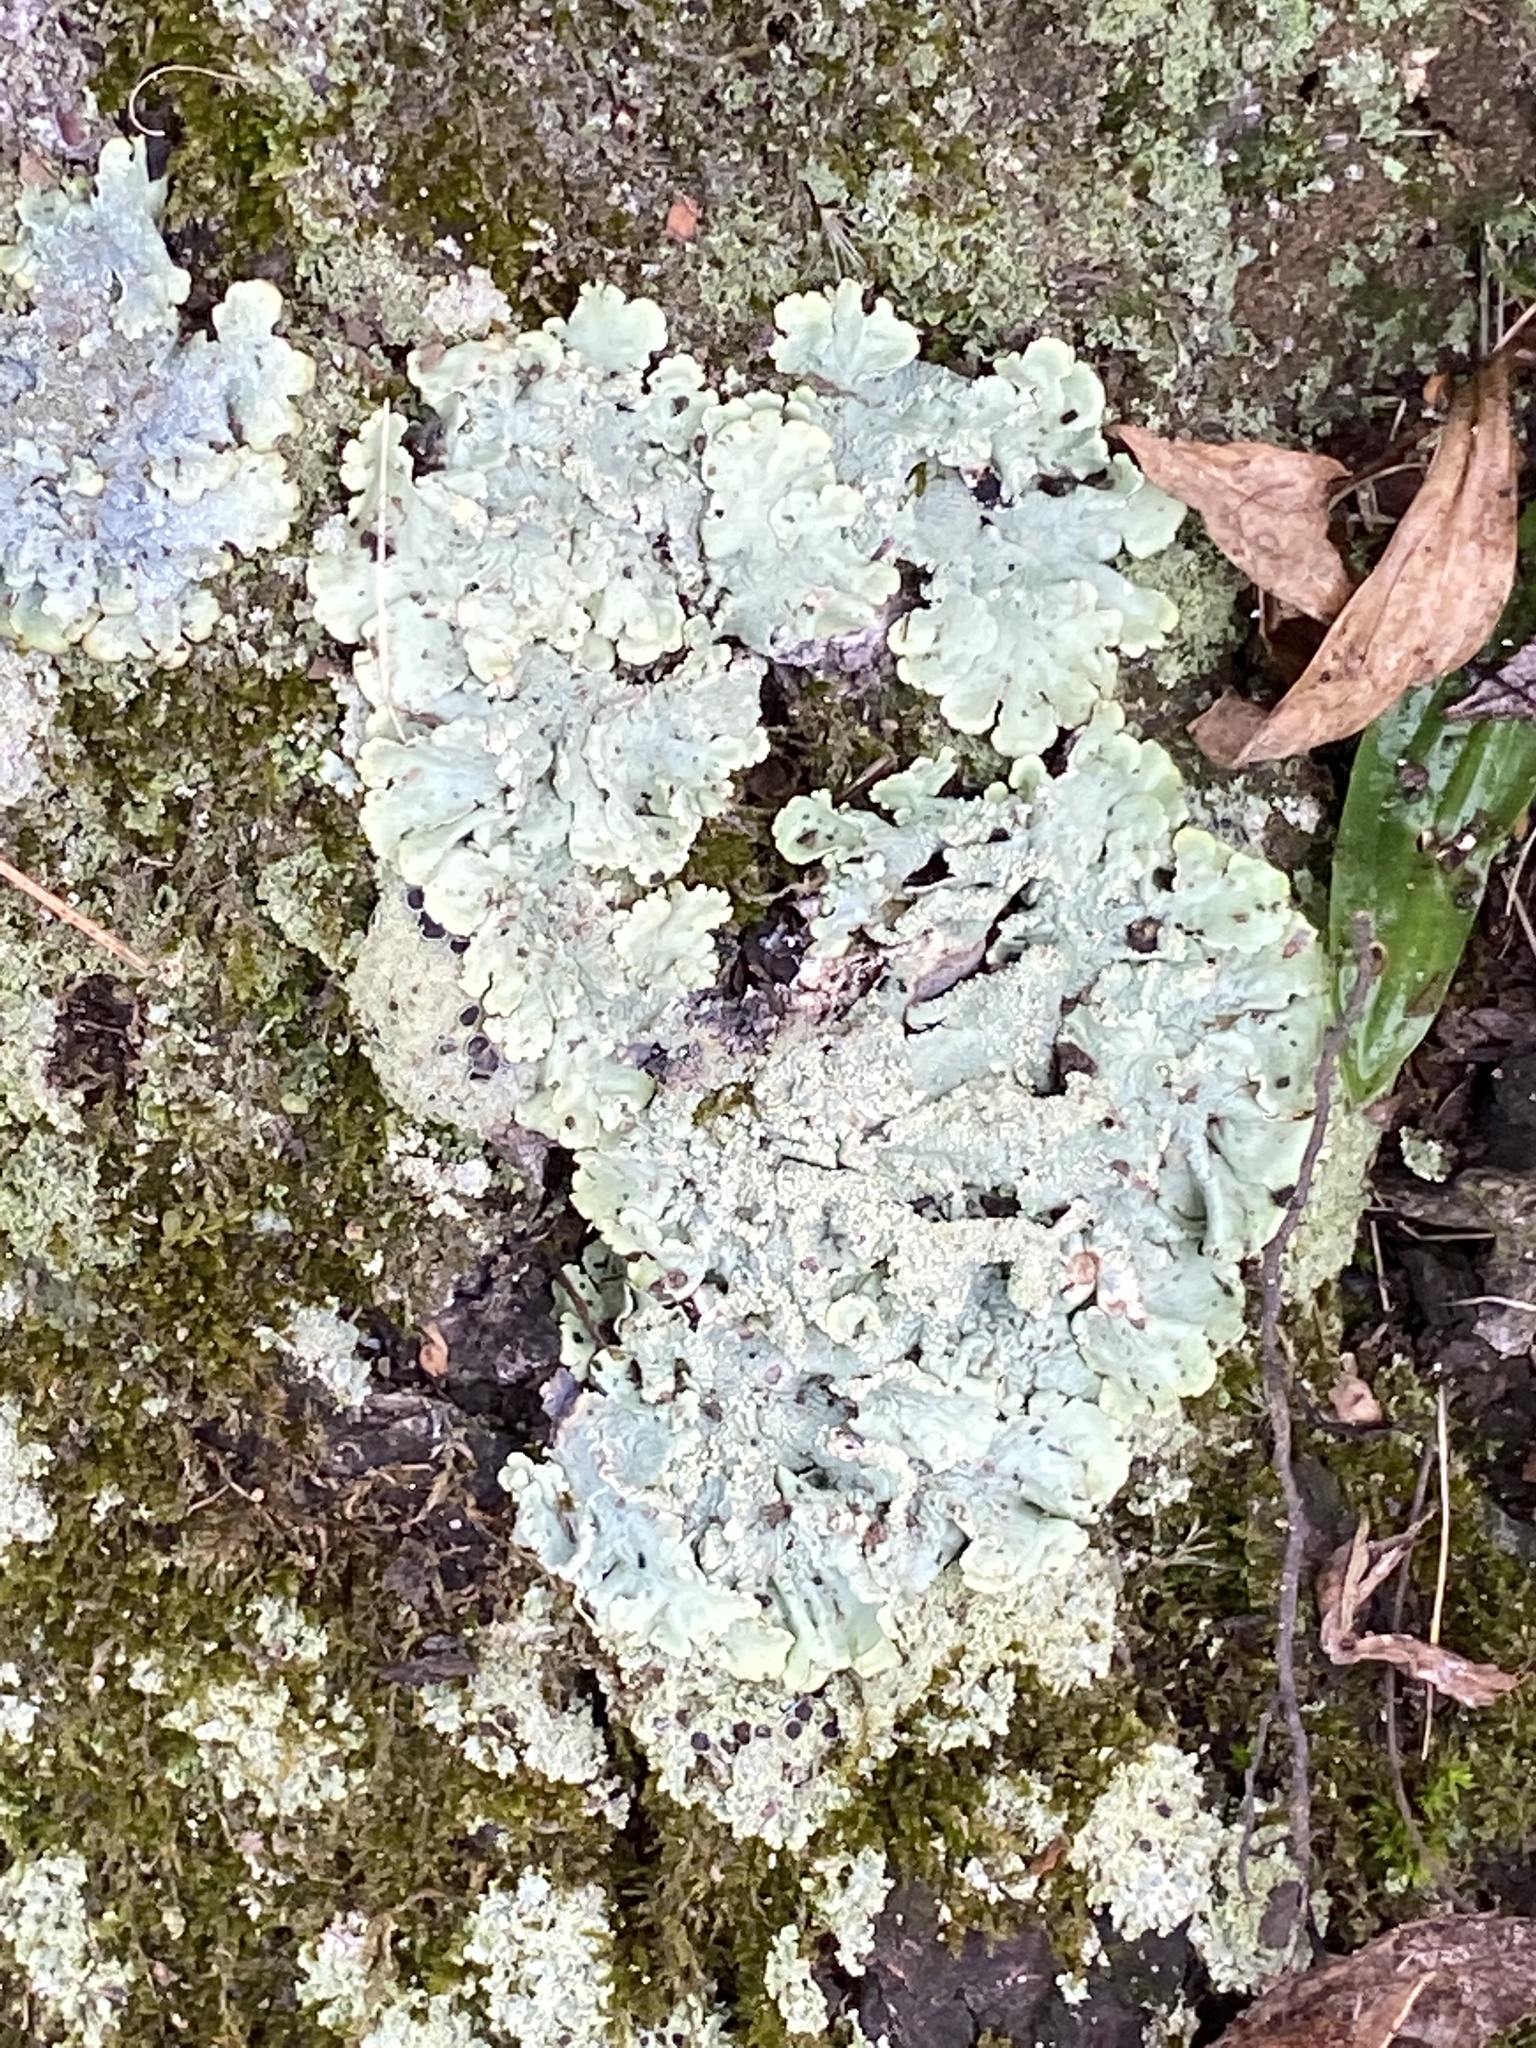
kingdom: Fungi
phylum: Ascomycota
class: Lecanoromycetes
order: Lecanorales
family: Parmeliaceae
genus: Flavoparmelia
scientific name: Flavoparmelia caperata
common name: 40-mile per hour lichen
